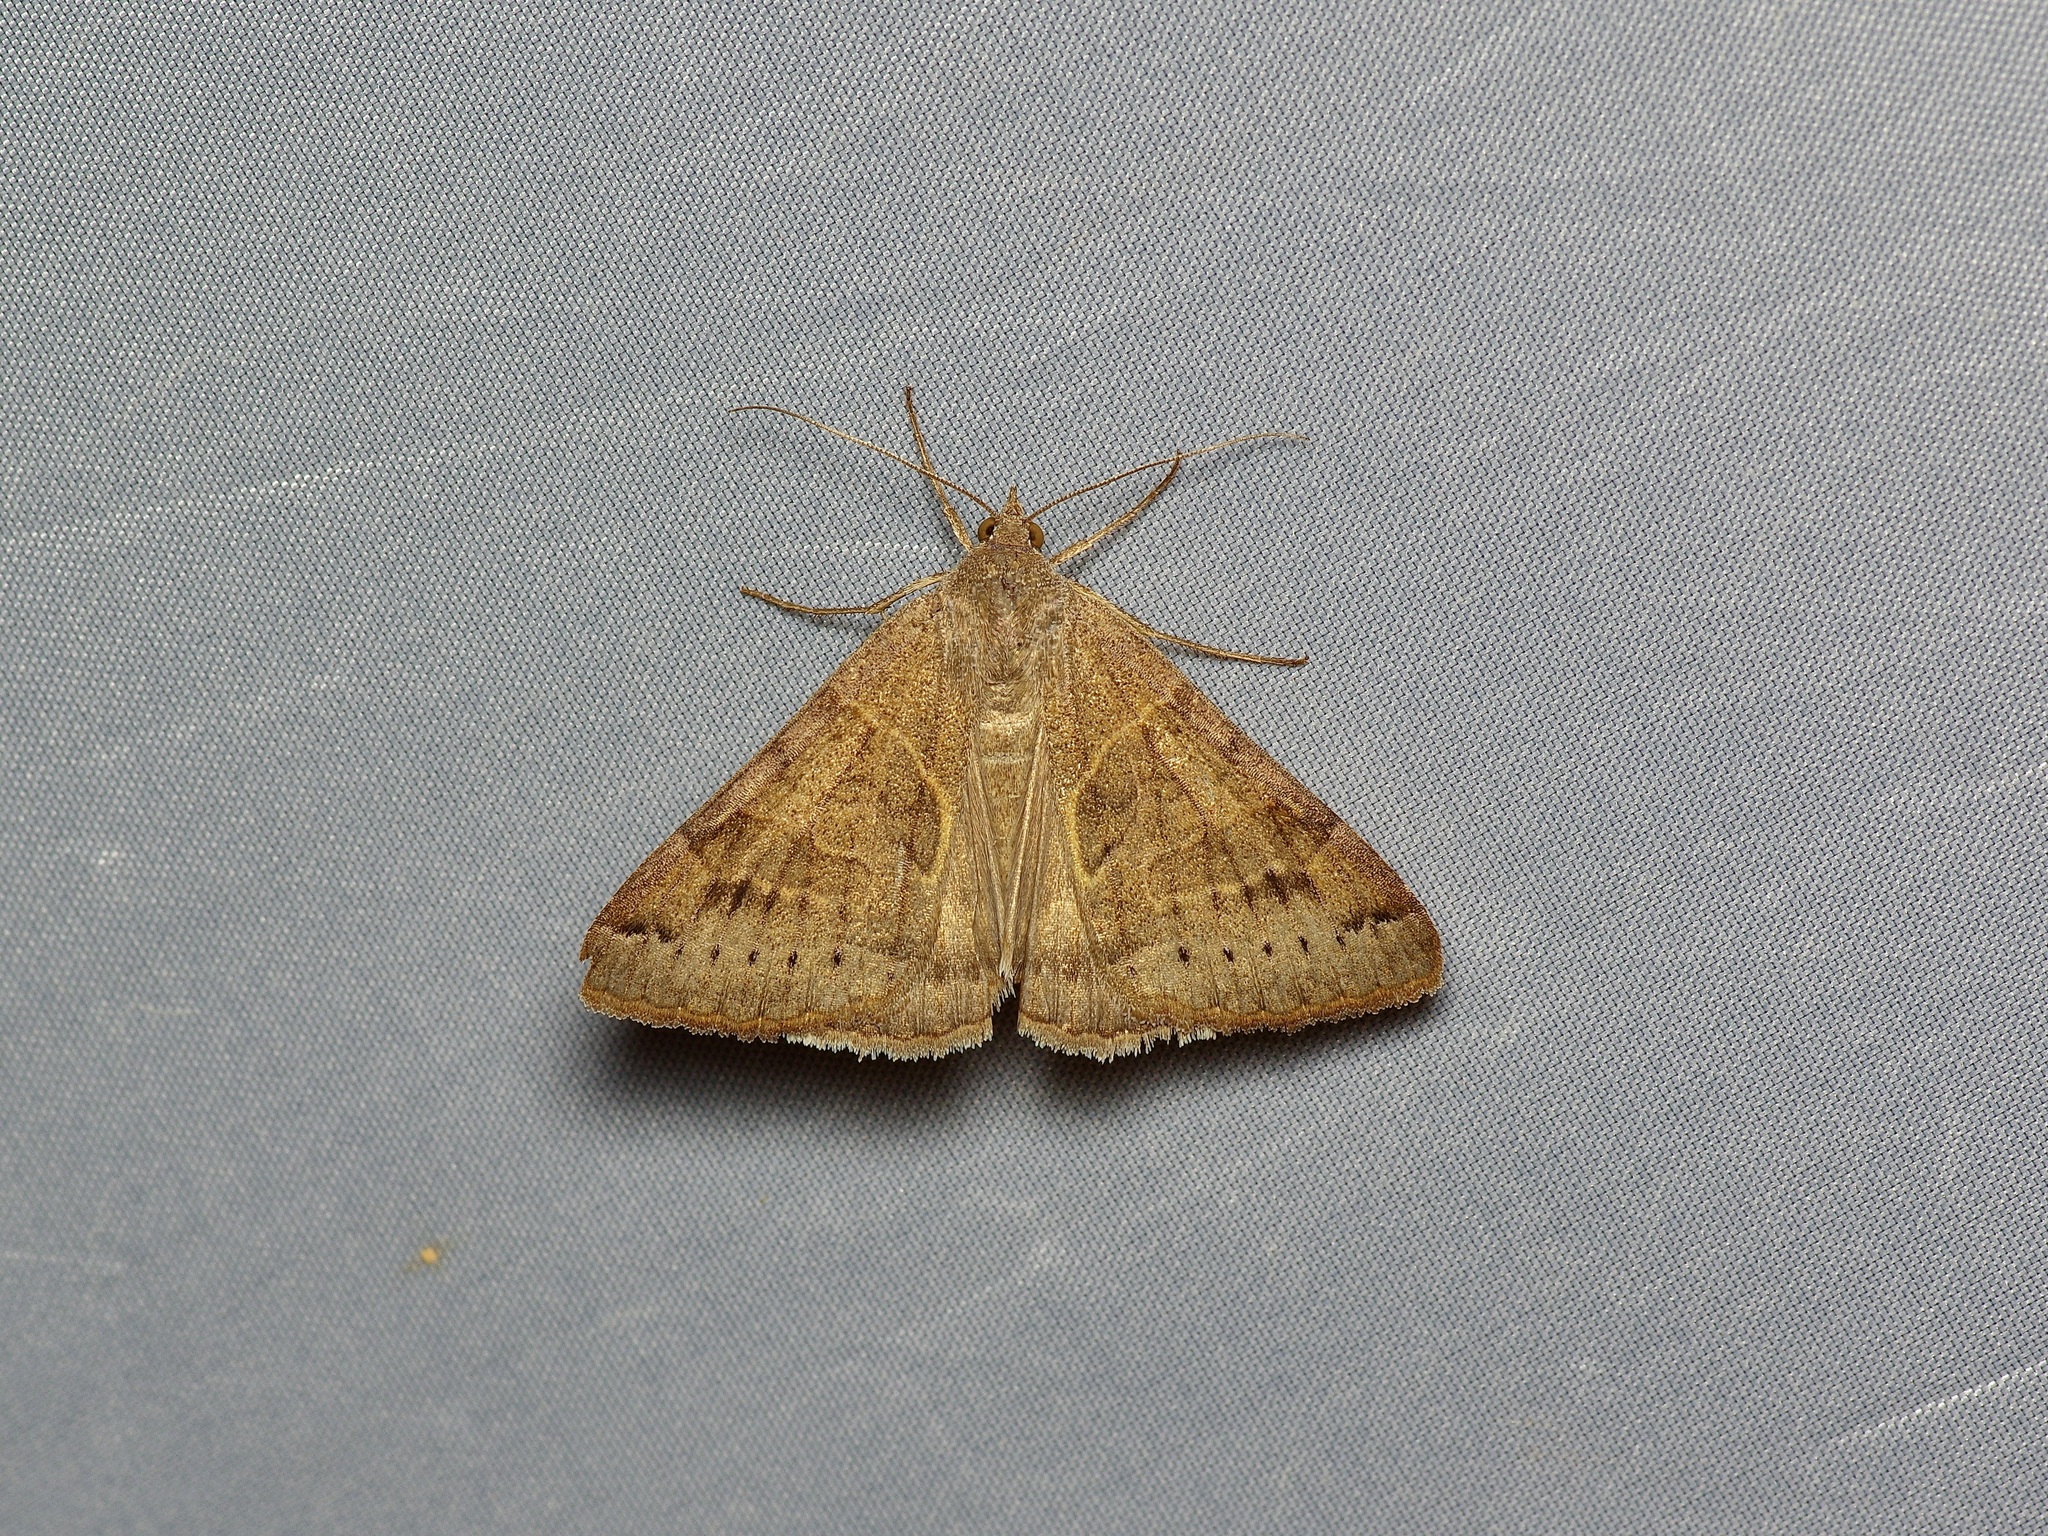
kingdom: Animalia
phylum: Arthropoda
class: Insecta
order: Lepidoptera
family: Erebidae
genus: Caenurgina
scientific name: Caenurgina erechtea
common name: Forage looper moth
